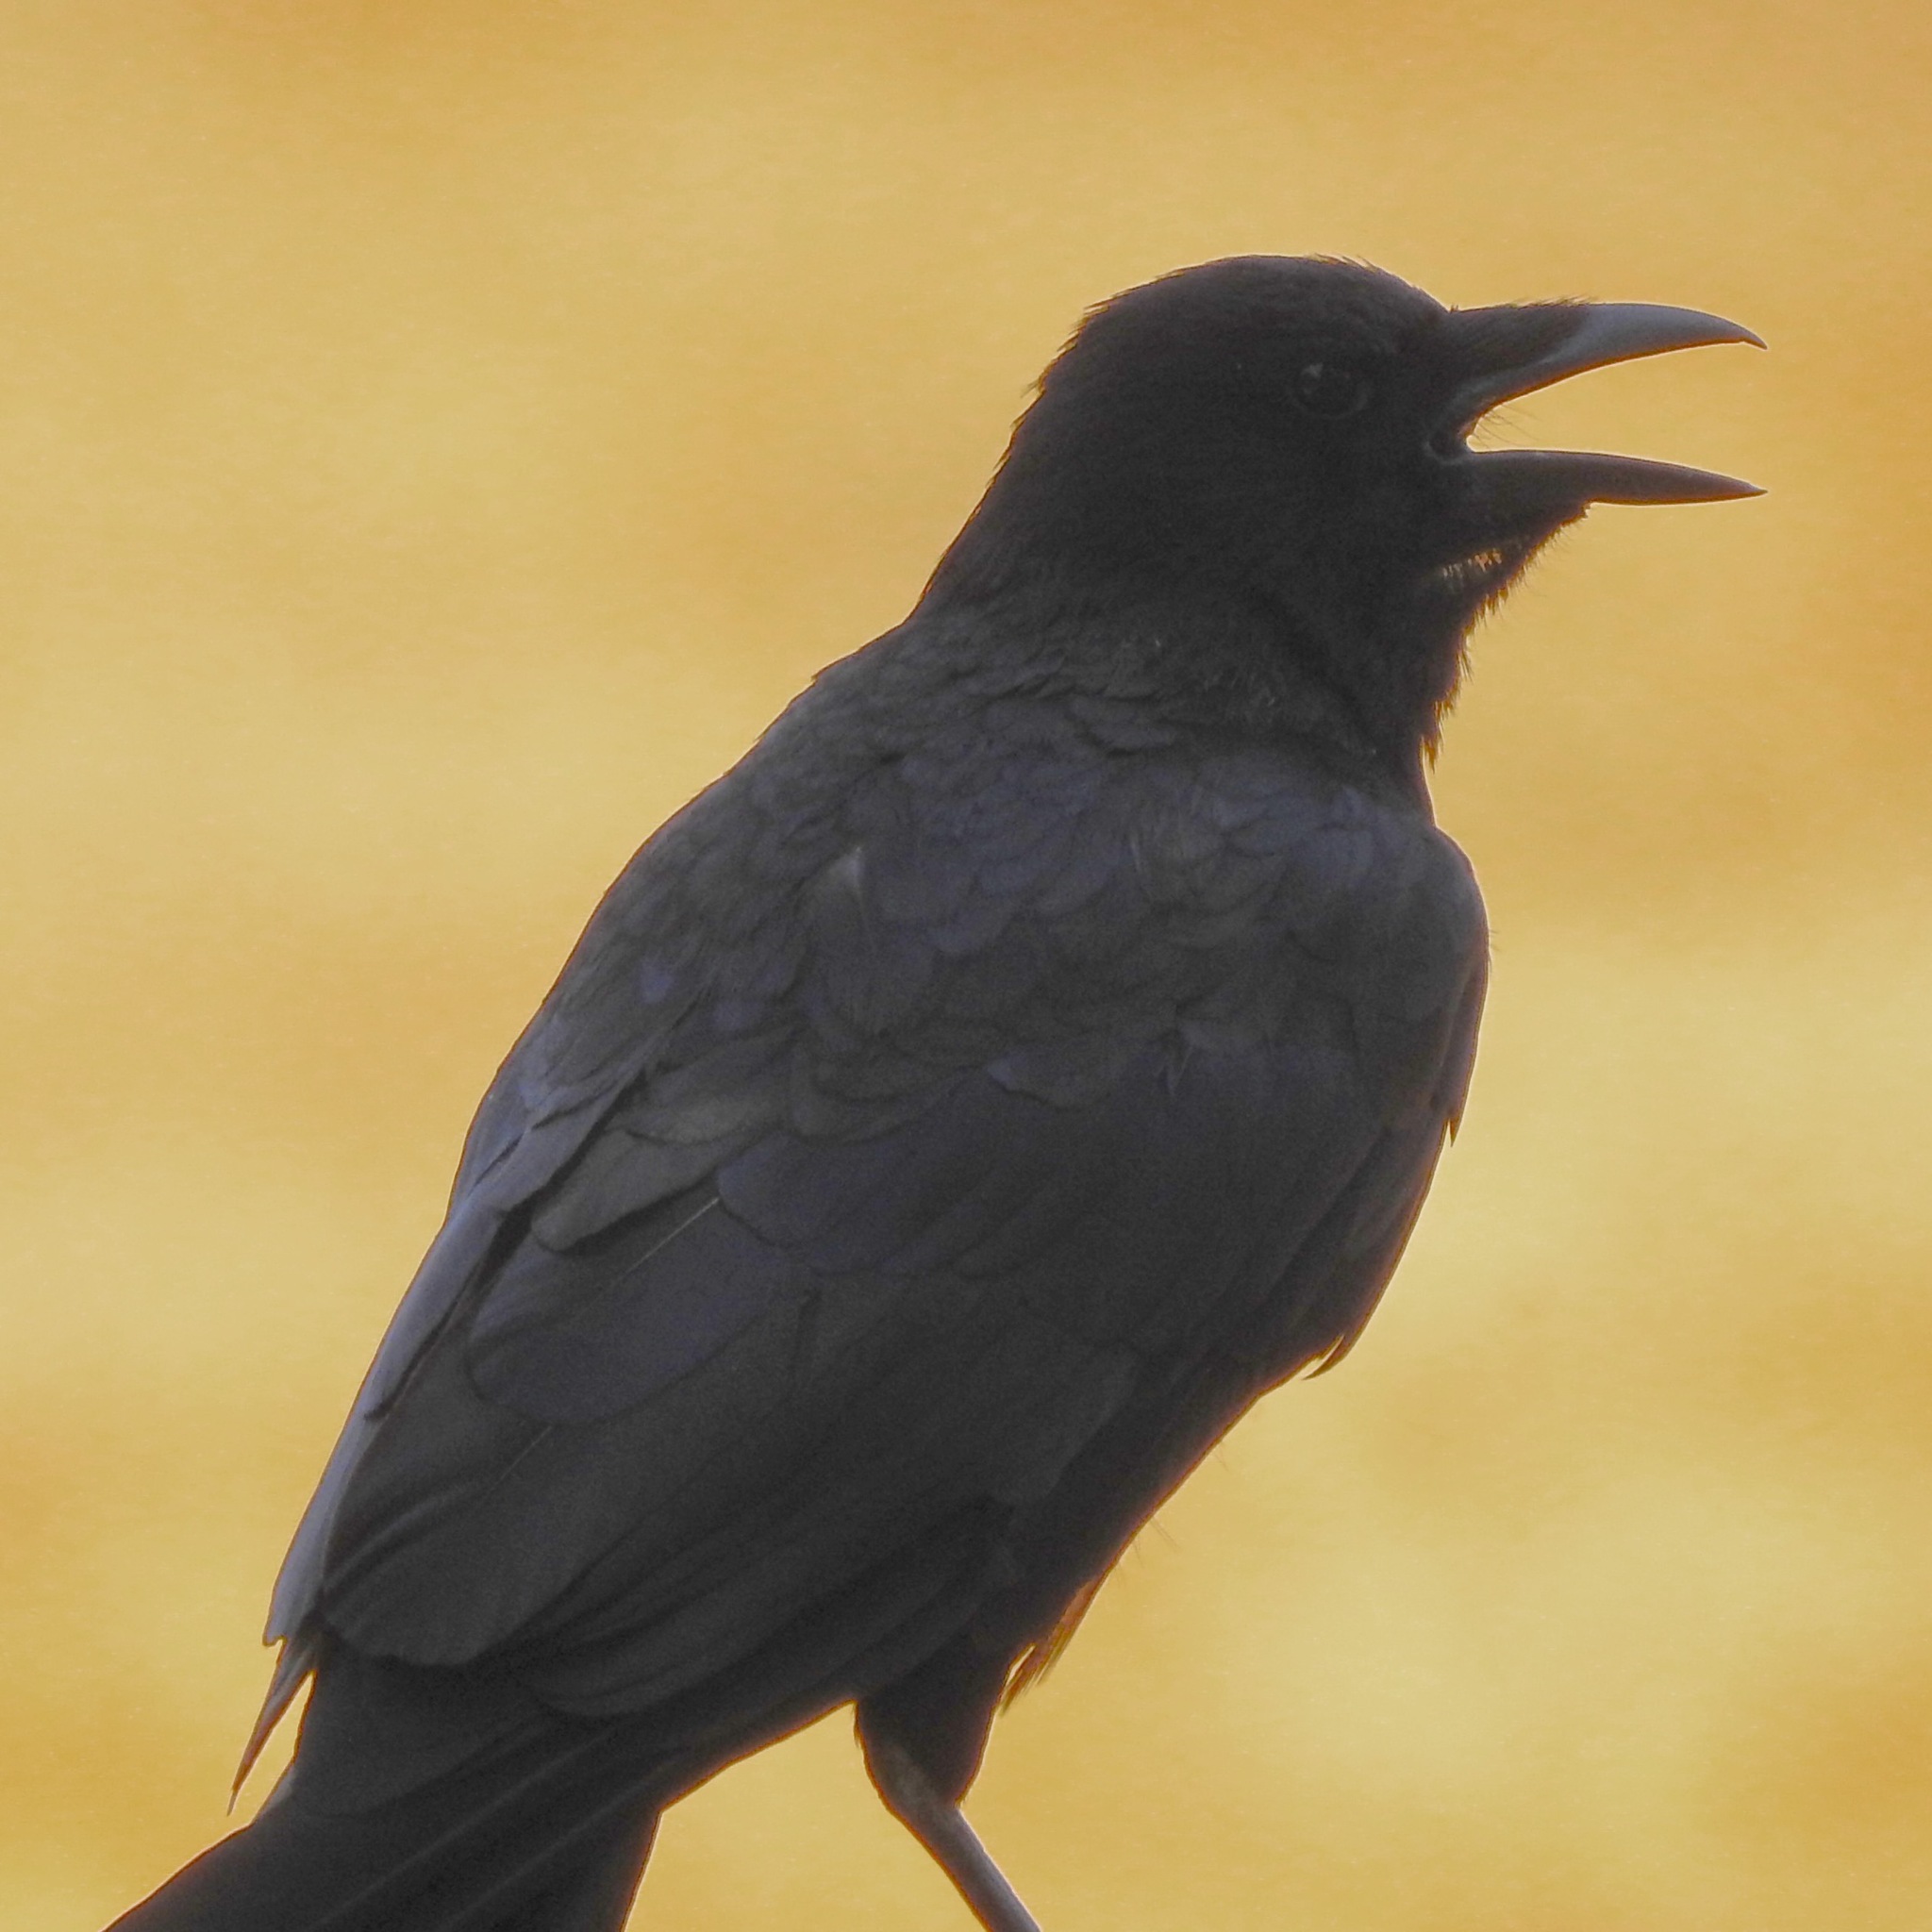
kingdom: Animalia
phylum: Chordata
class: Aves
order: Passeriformes
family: Corvidae
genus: Corvus
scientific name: Corvus brachyrhynchos
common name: American crow
